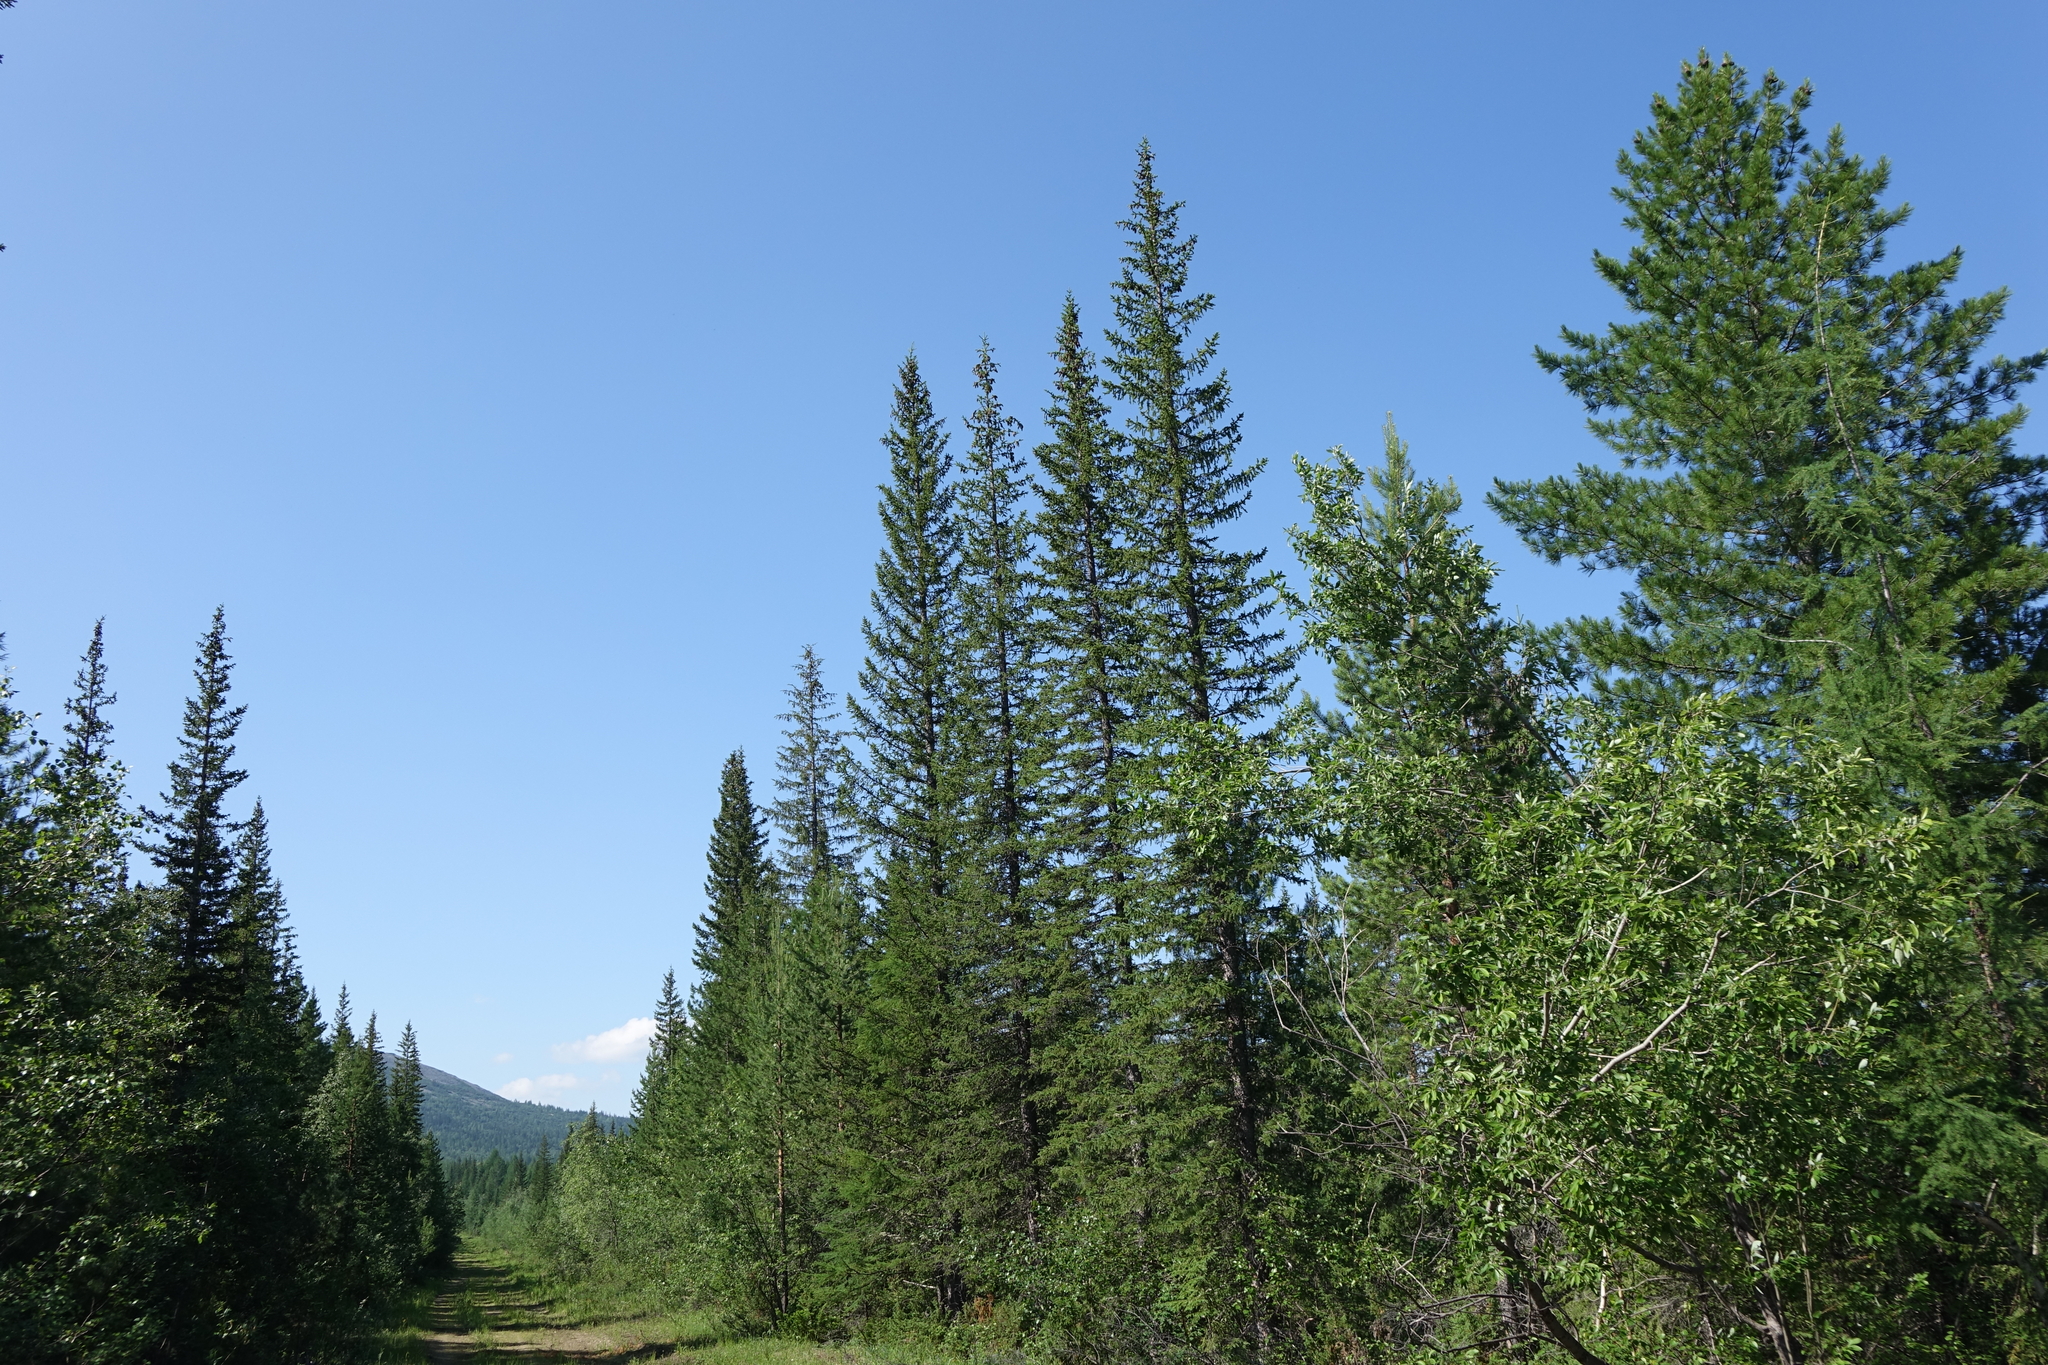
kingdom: Plantae
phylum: Tracheophyta
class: Pinopsida
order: Pinales
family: Pinaceae
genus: Picea
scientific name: Picea obovata
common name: Siberian spruce
